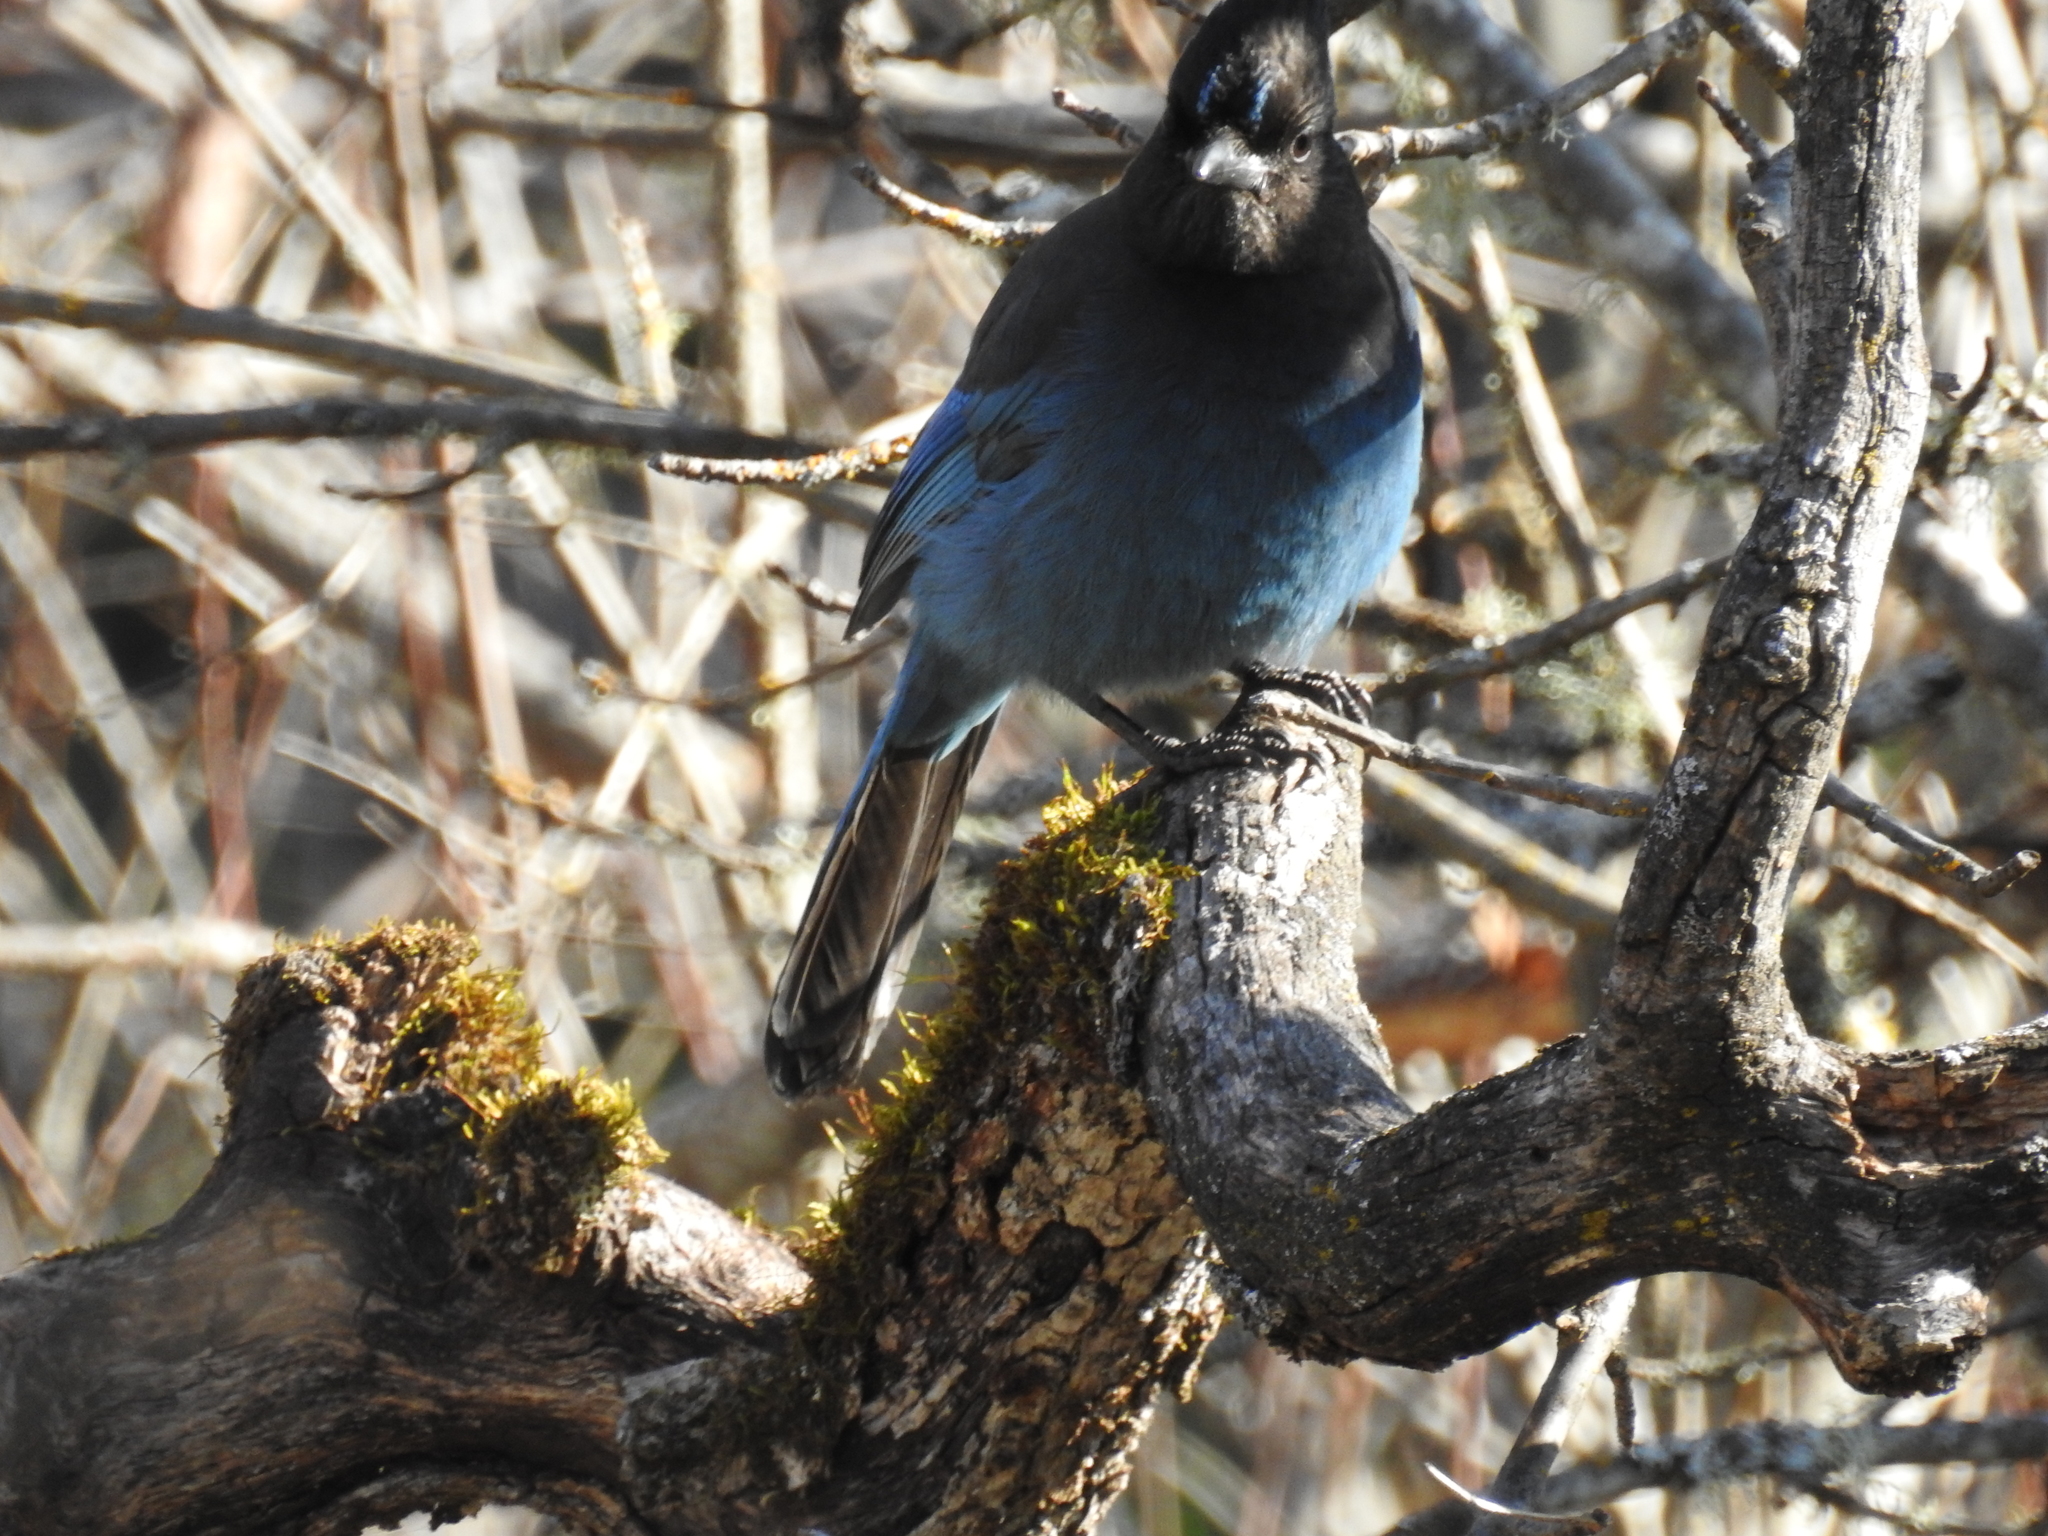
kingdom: Animalia
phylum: Chordata
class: Aves
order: Passeriformes
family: Corvidae
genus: Cyanocitta
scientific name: Cyanocitta stelleri
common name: Steller's jay
